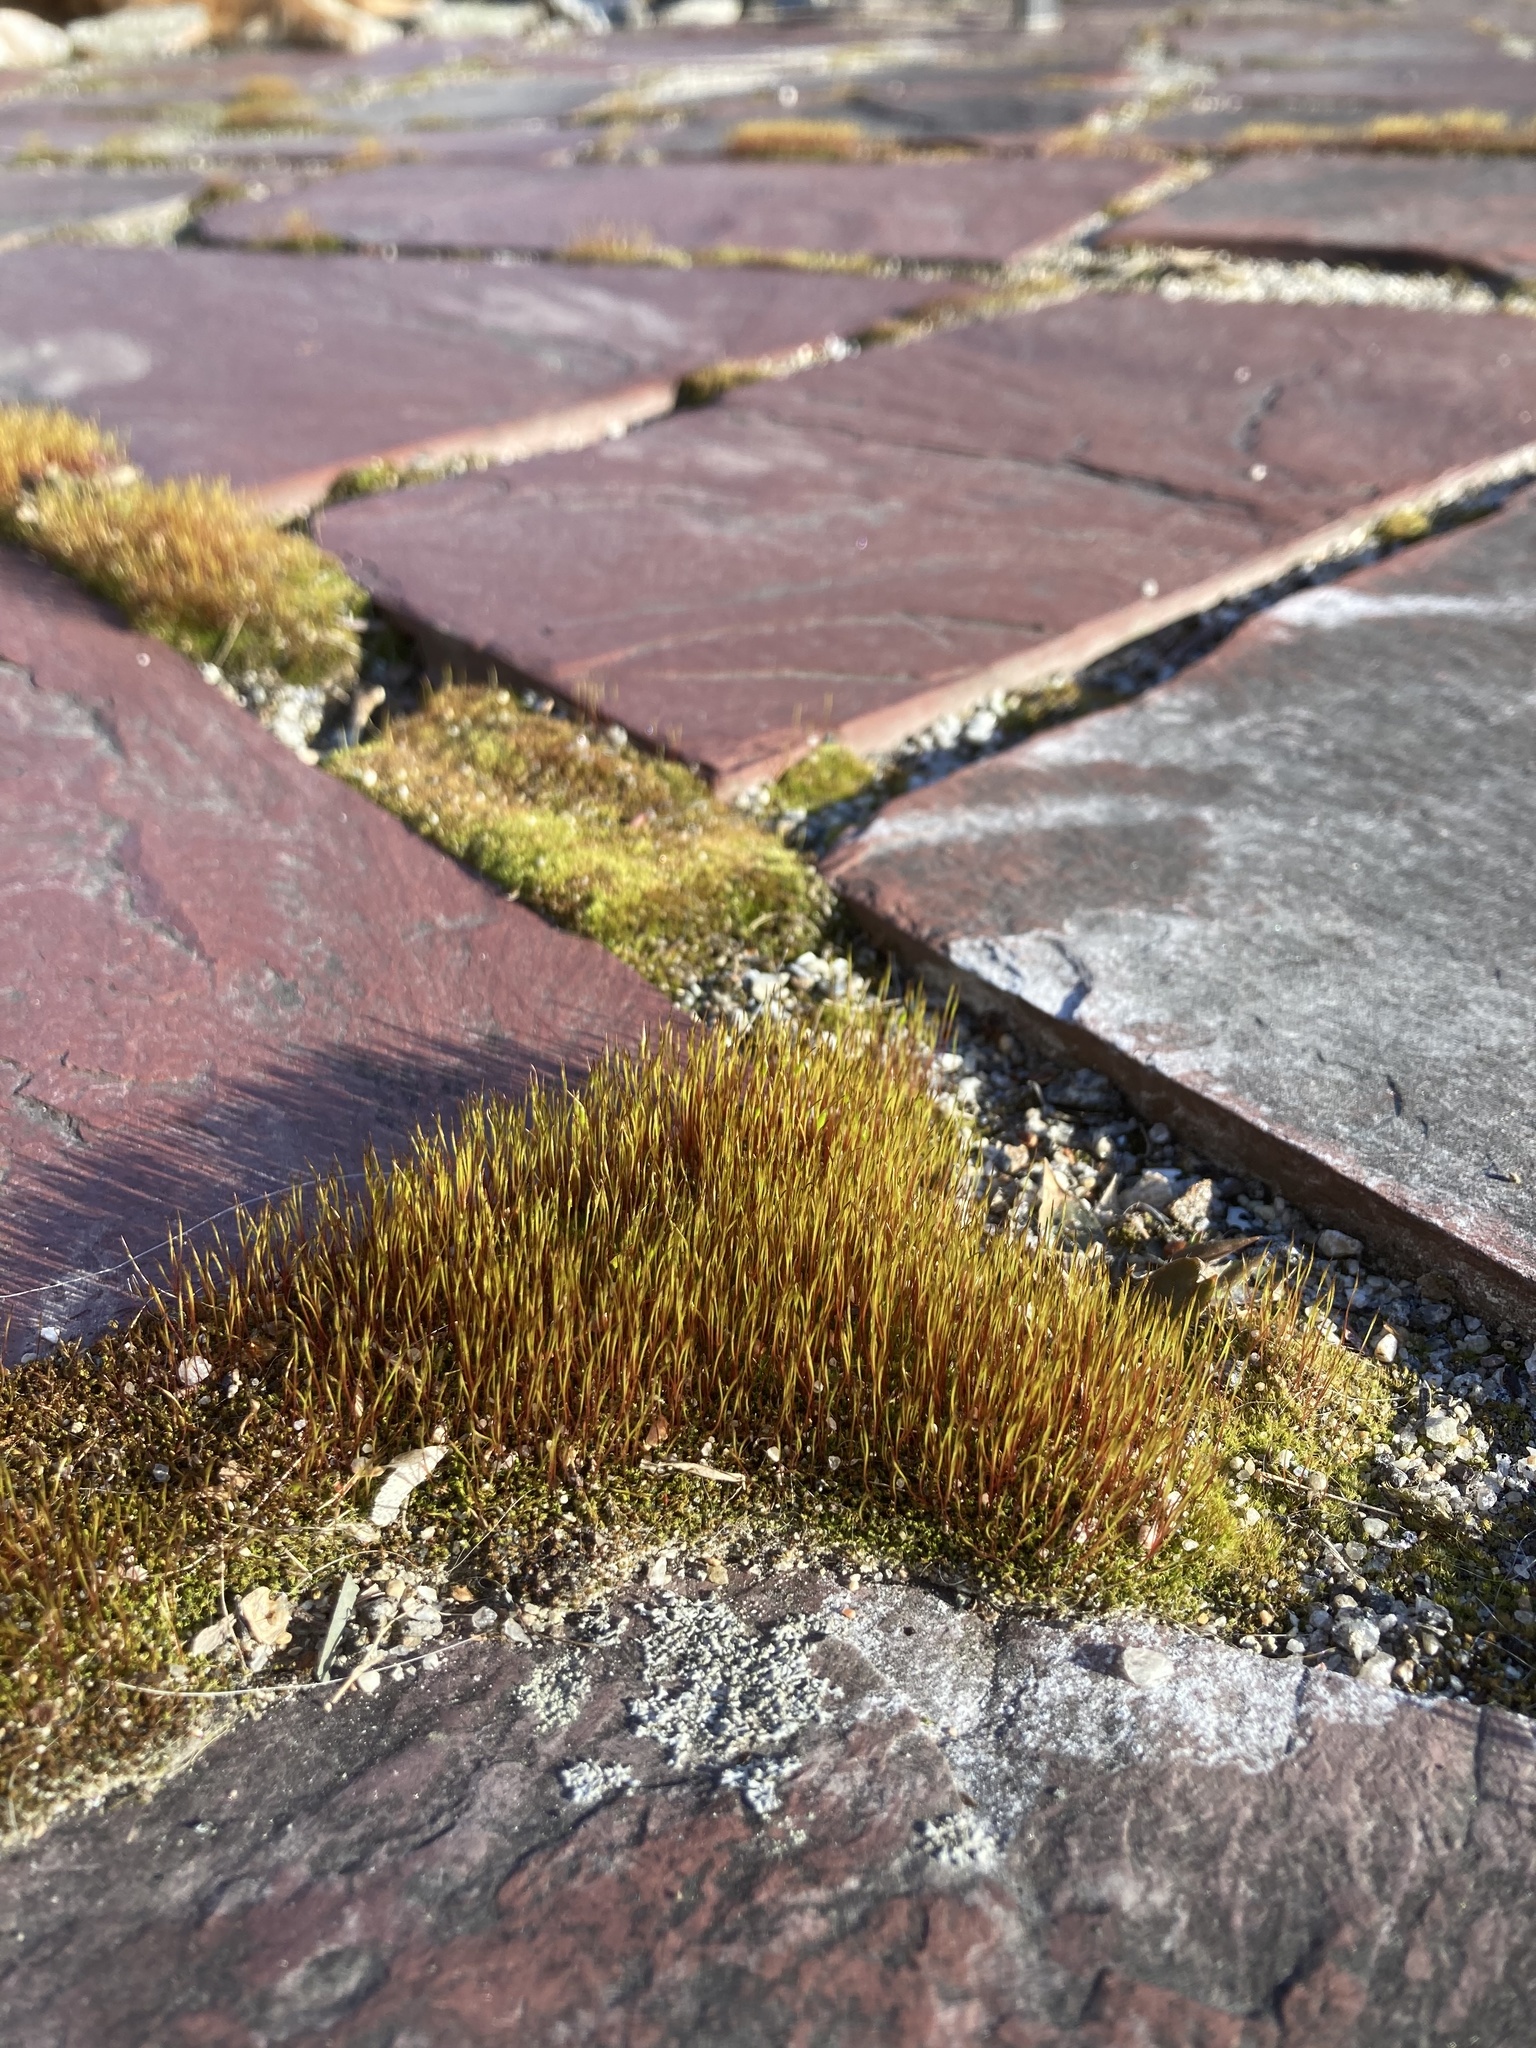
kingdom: Plantae
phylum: Bryophyta
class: Bryopsida
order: Dicranales
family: Ditrichaceae
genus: Ceratodon
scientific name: Ceratodon purpureus
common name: Redshank
